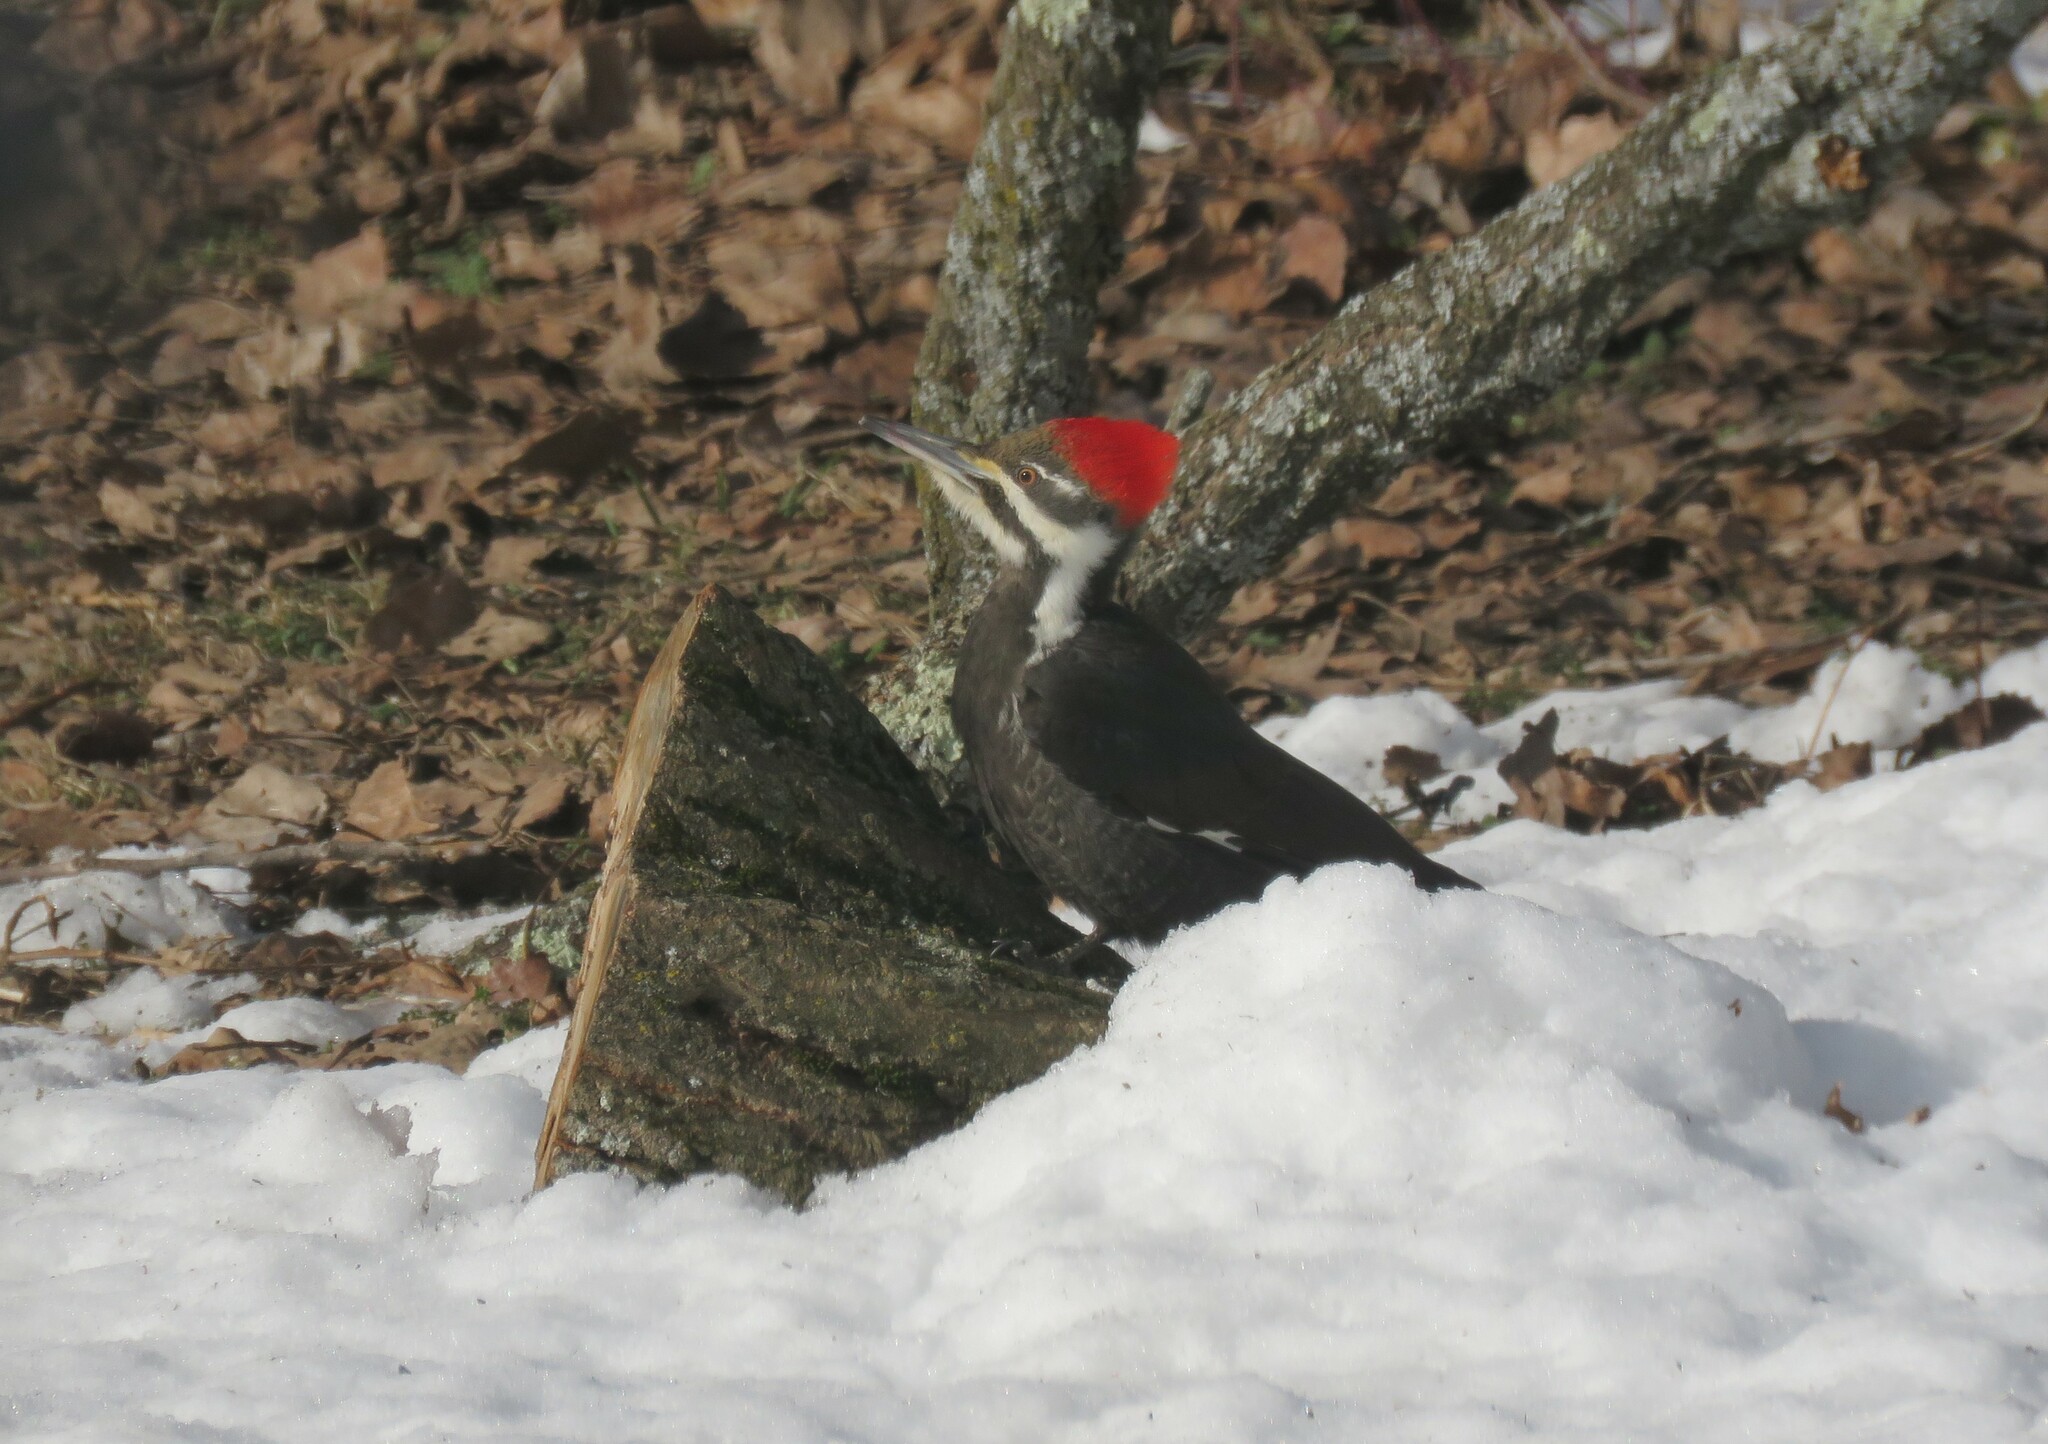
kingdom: Animalia
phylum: Chordata
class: Aves
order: Piciformes
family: Picidae
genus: Dryocopus
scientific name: Dryocopus pileatus
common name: Pileated woodpecker
